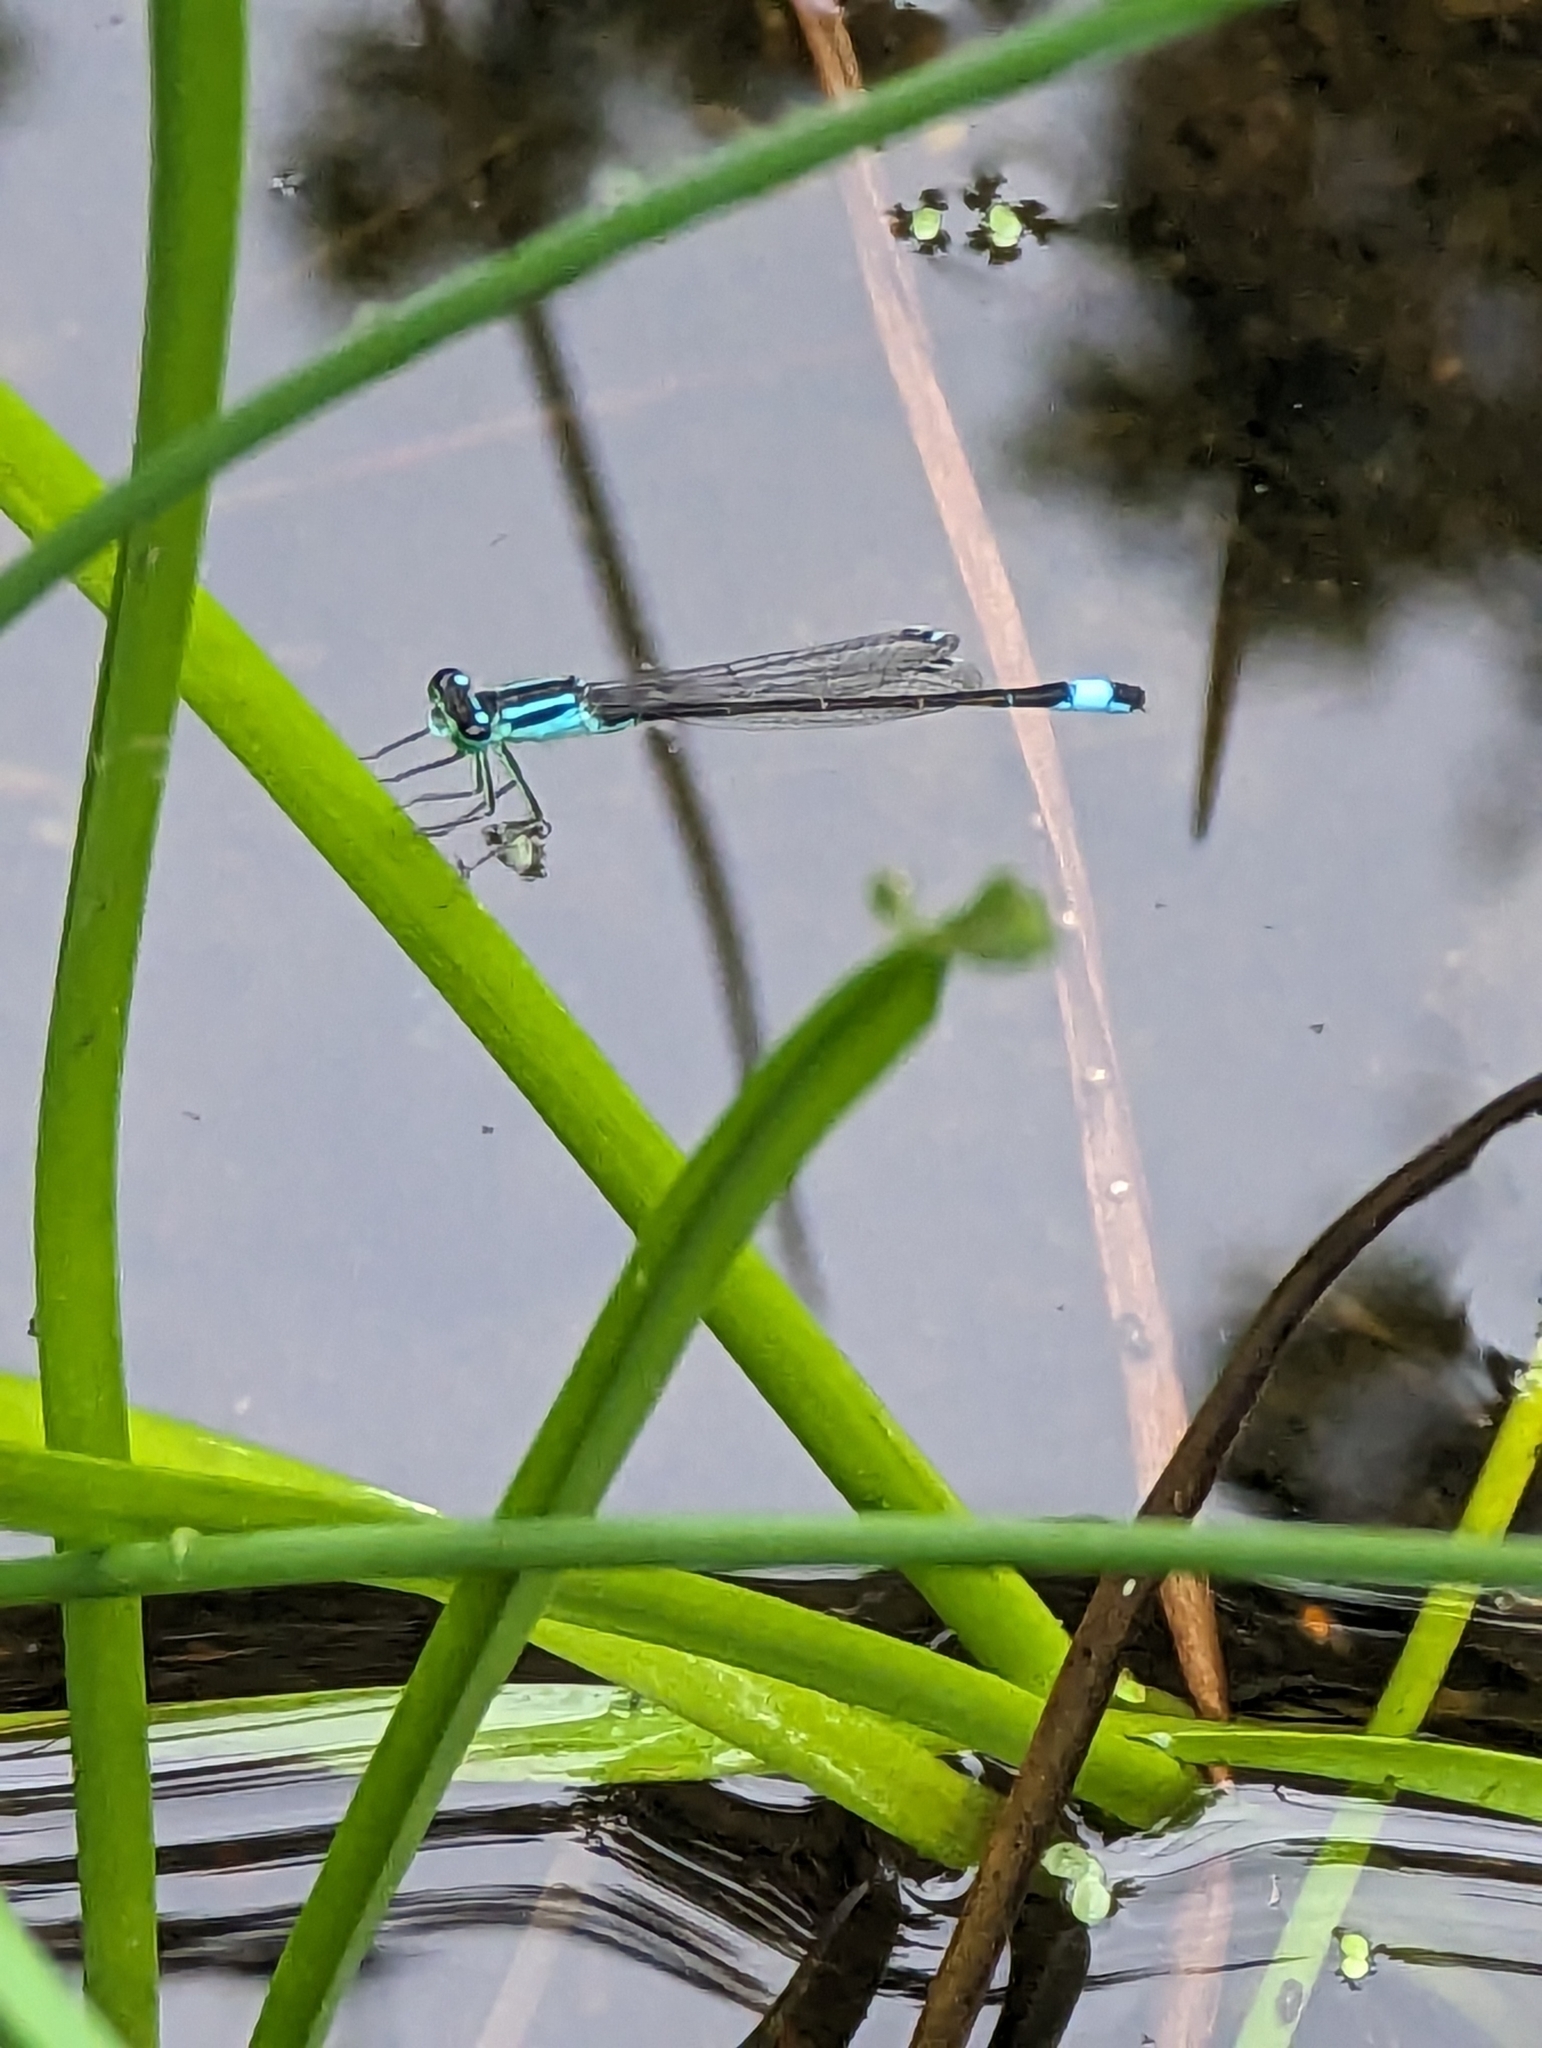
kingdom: Animalia
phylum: Arthropoda
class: Insecta
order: Odonata
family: Coenagrionidae
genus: Ischnura
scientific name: Ischnura elegans
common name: Blue-tailed damselfly
